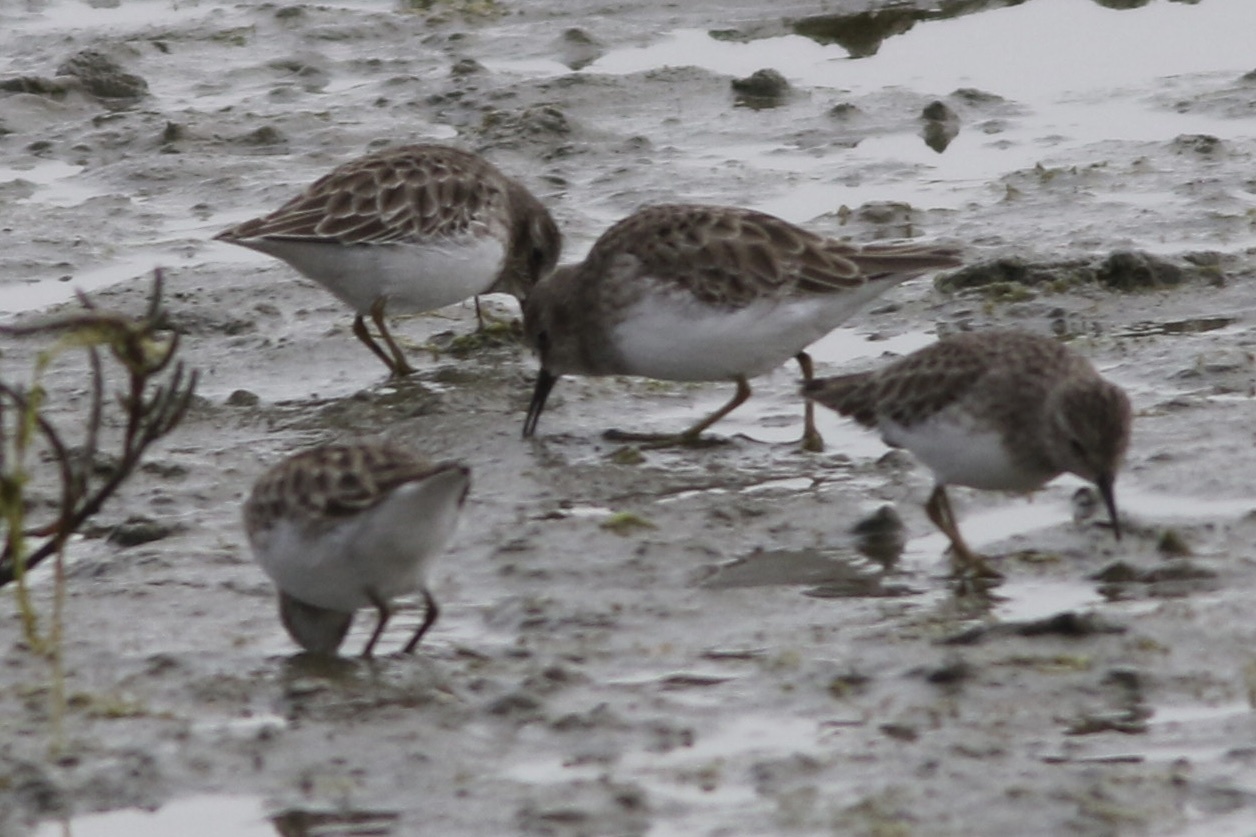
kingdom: Animalia
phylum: Chordata
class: Aves
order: Charadriiformes
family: Scolopacidae
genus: Calidris
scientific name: Calidris minutilla
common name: Least sandpiper
